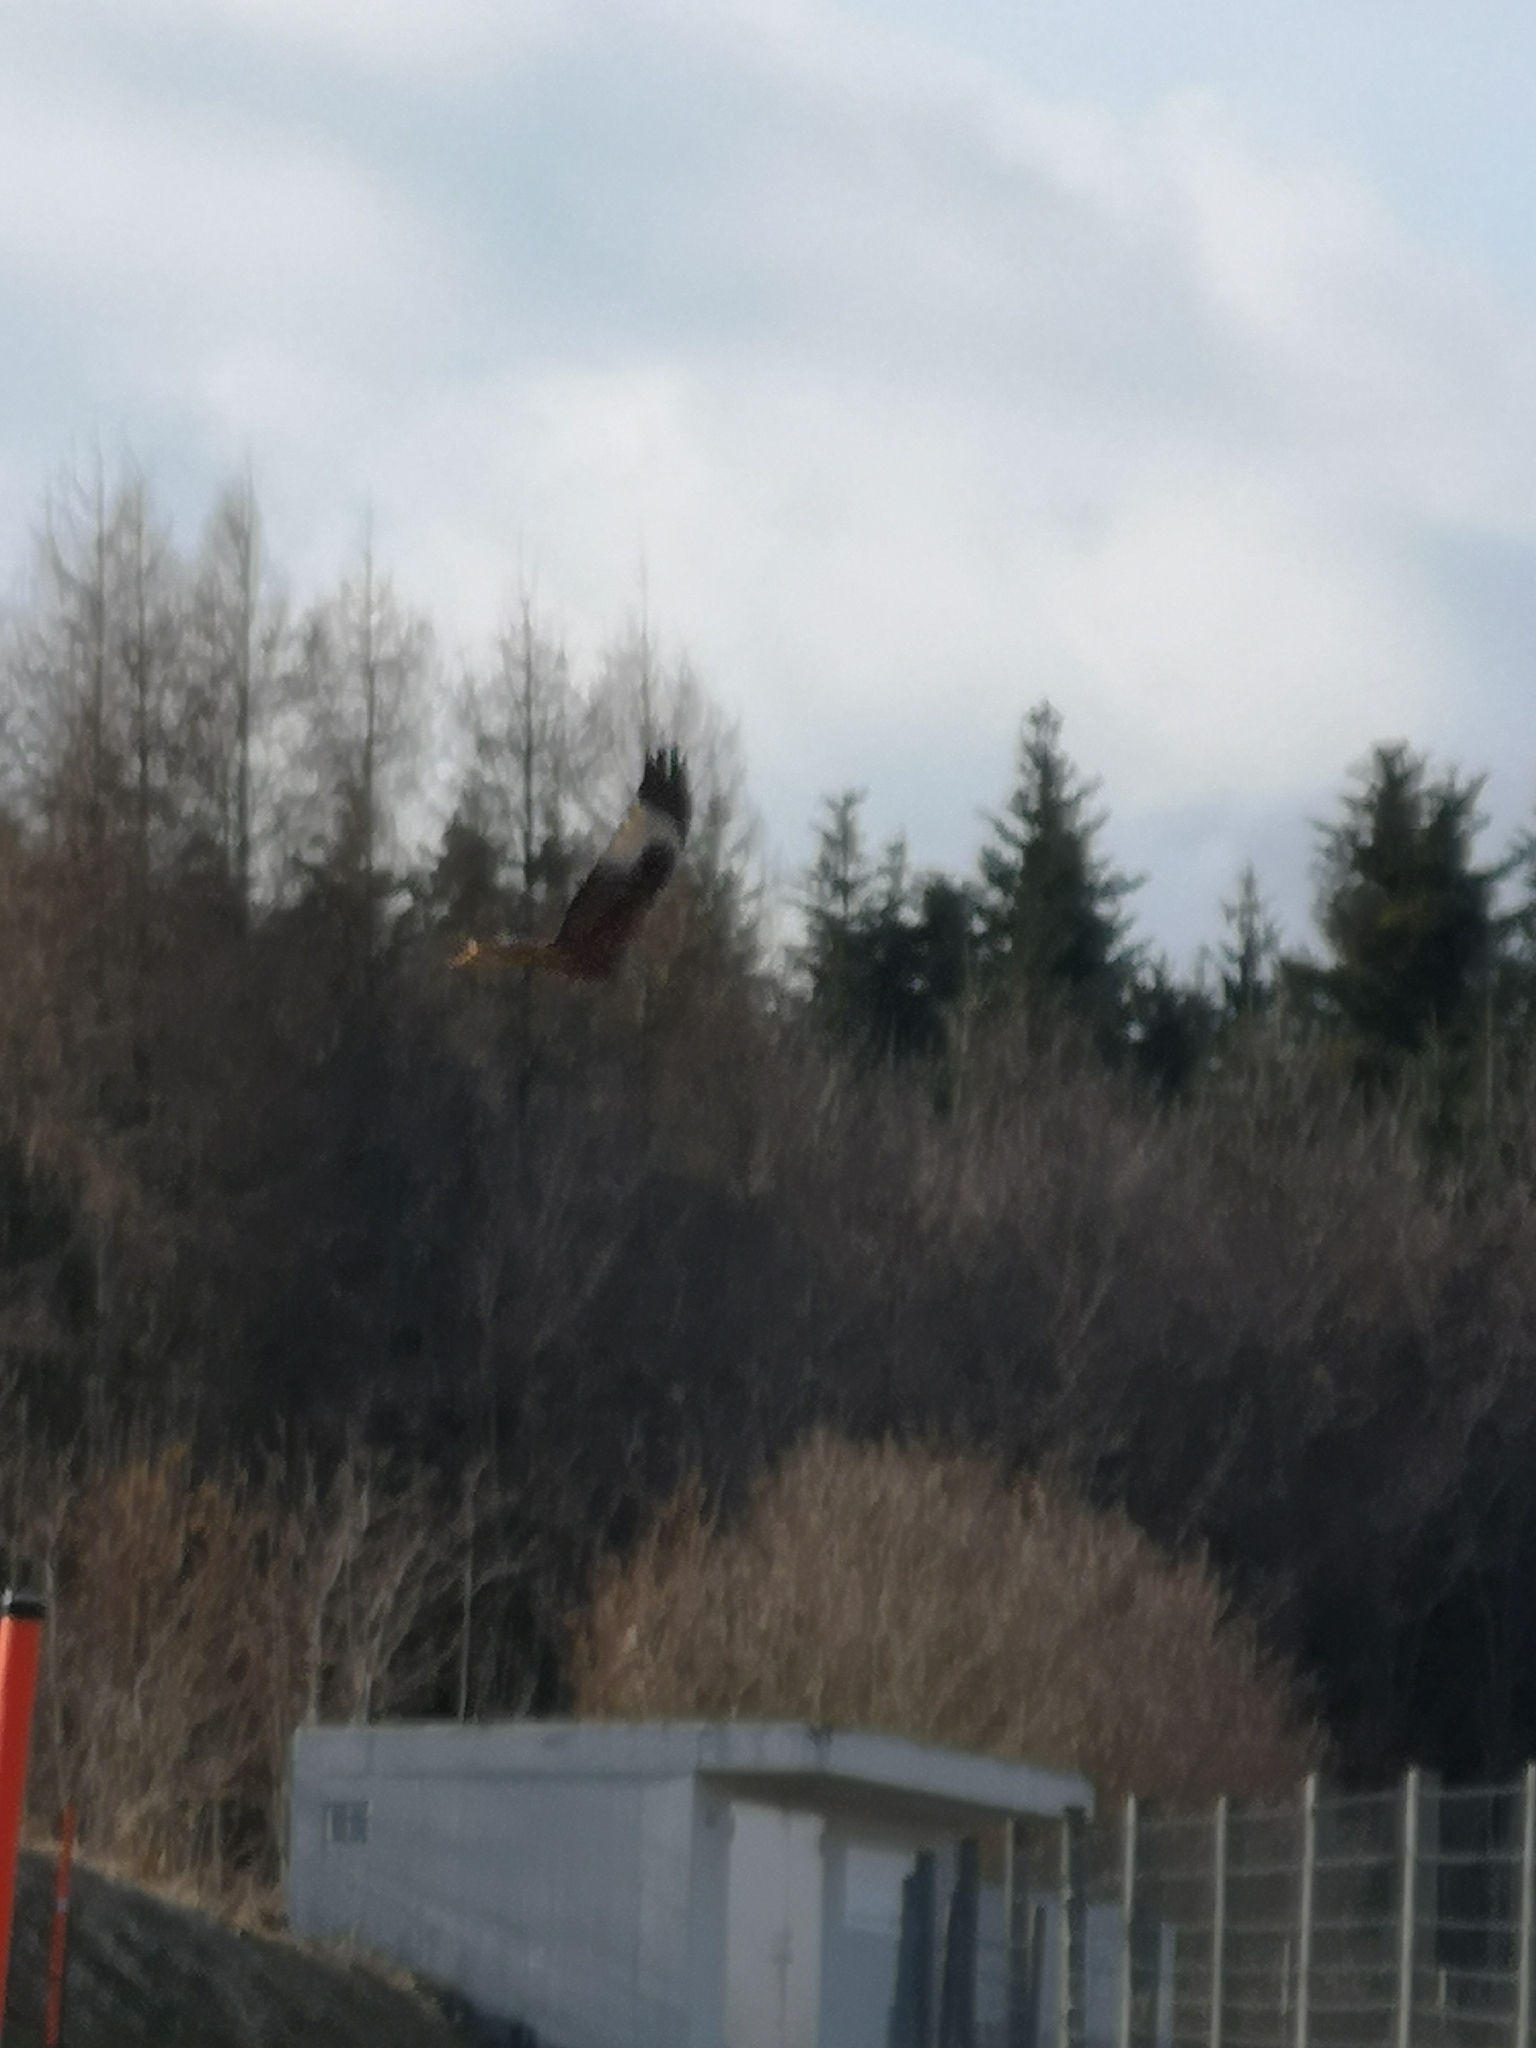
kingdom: Animalia
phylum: Chordata
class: Aves
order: Accipitriformes
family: Accipitridae
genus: Milvus
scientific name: Milvus milvus
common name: Red kite
